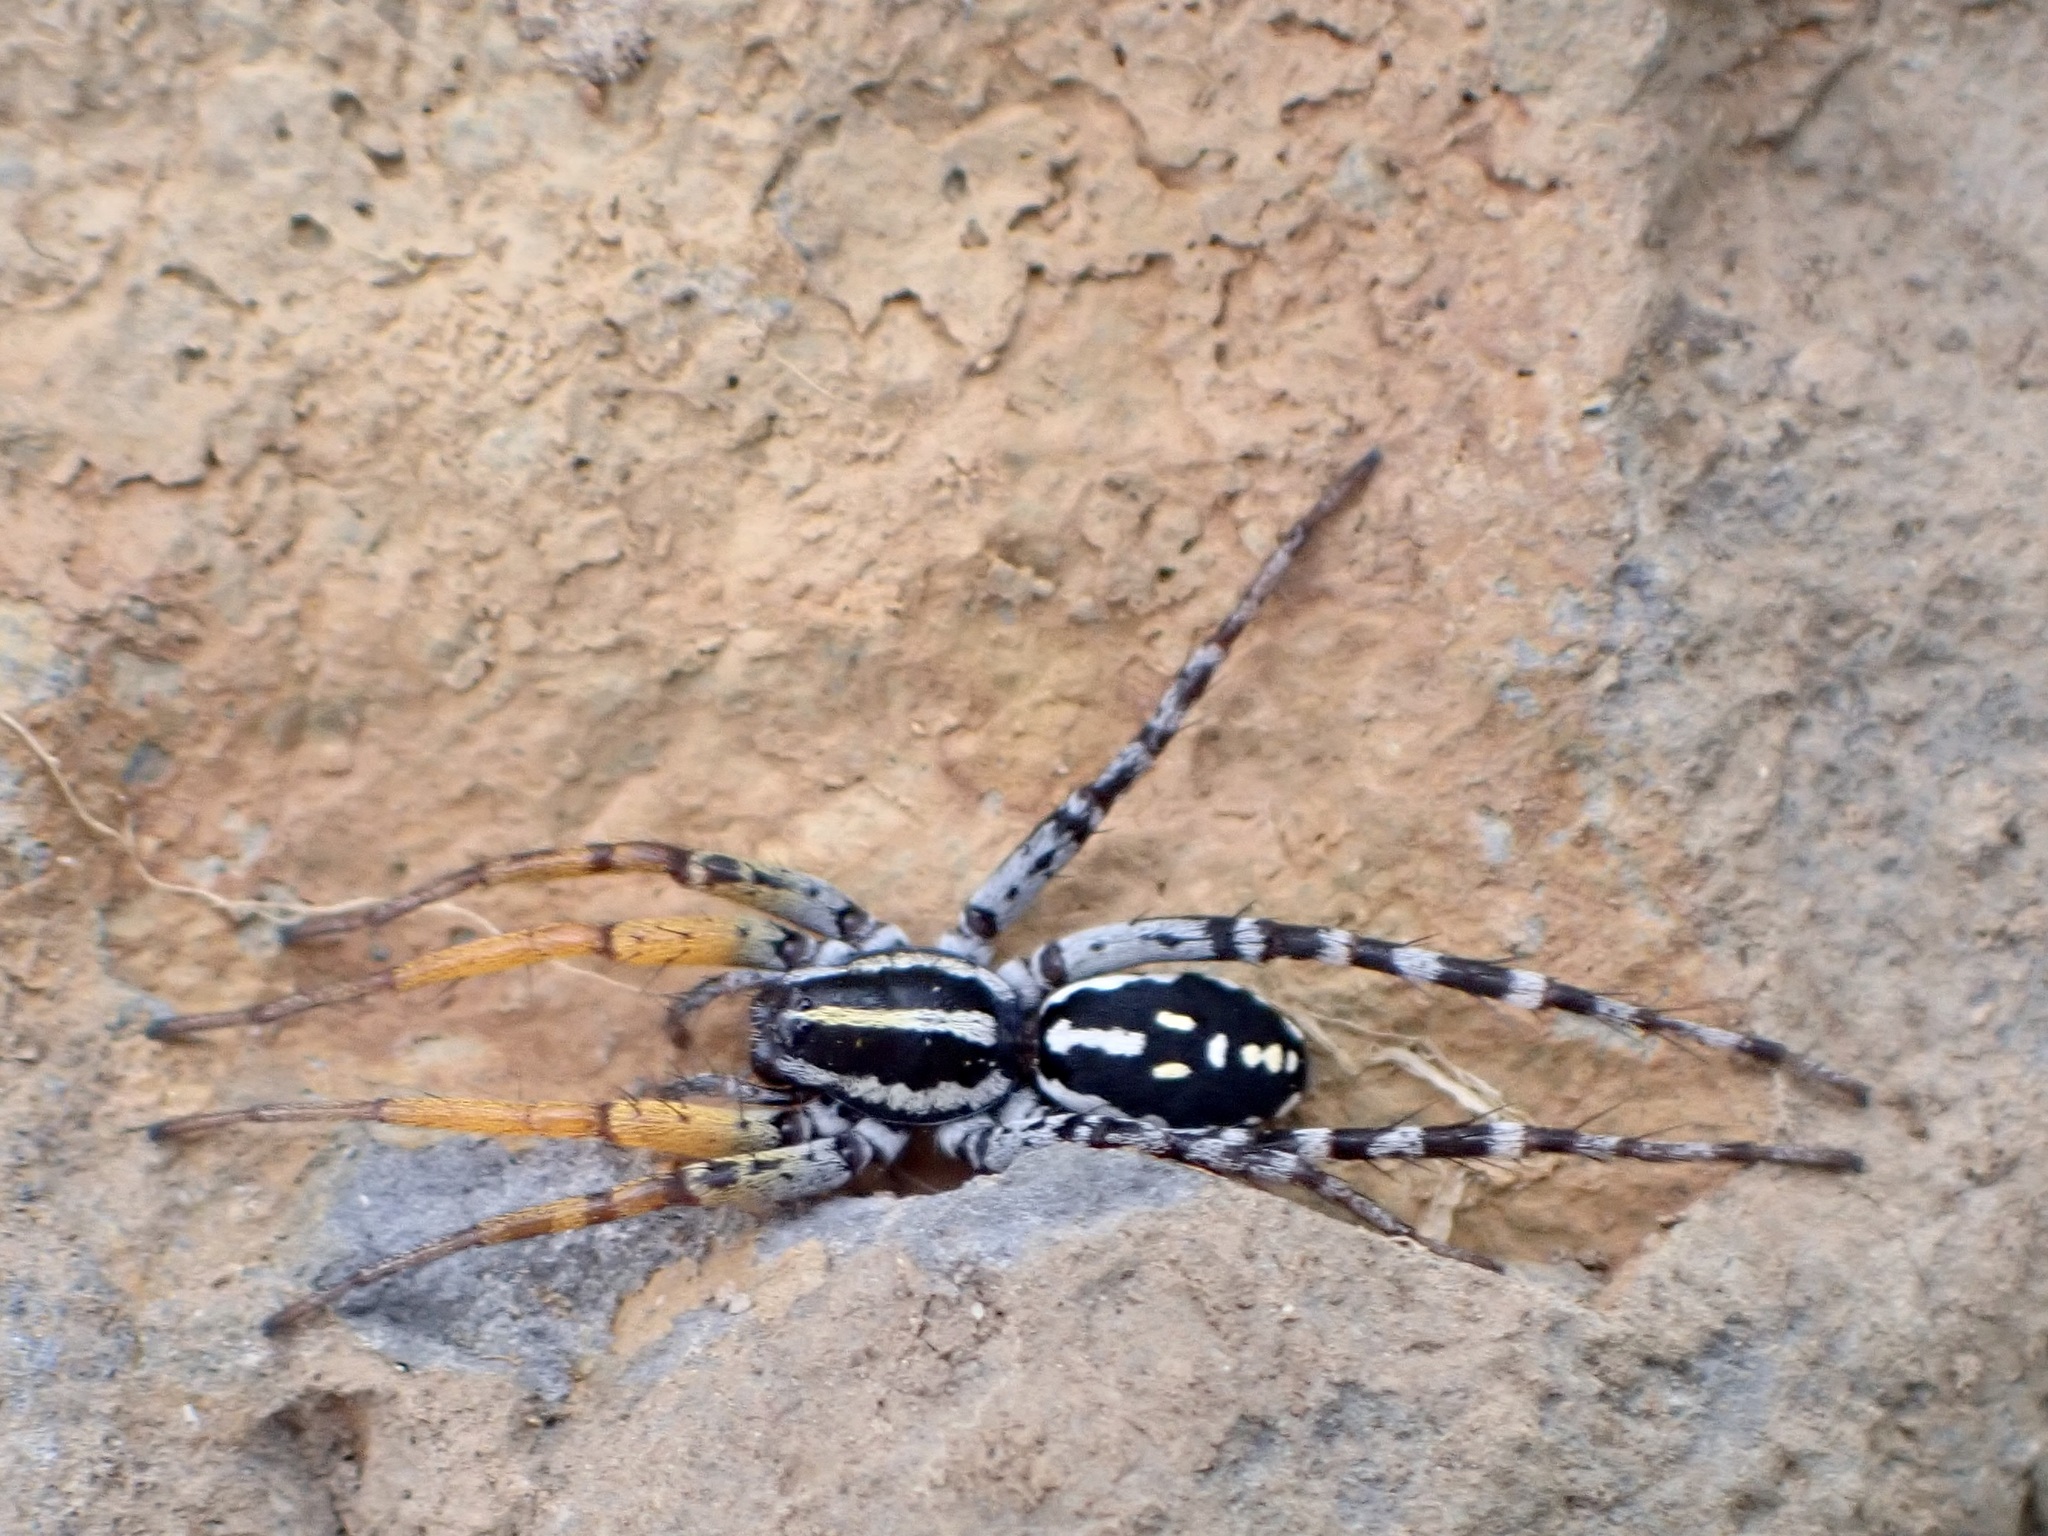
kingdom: Animalia
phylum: Arthropoda
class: Arachnida
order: Araneae
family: Corinnidae
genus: Nyssus
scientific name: Nyssus coloripes
